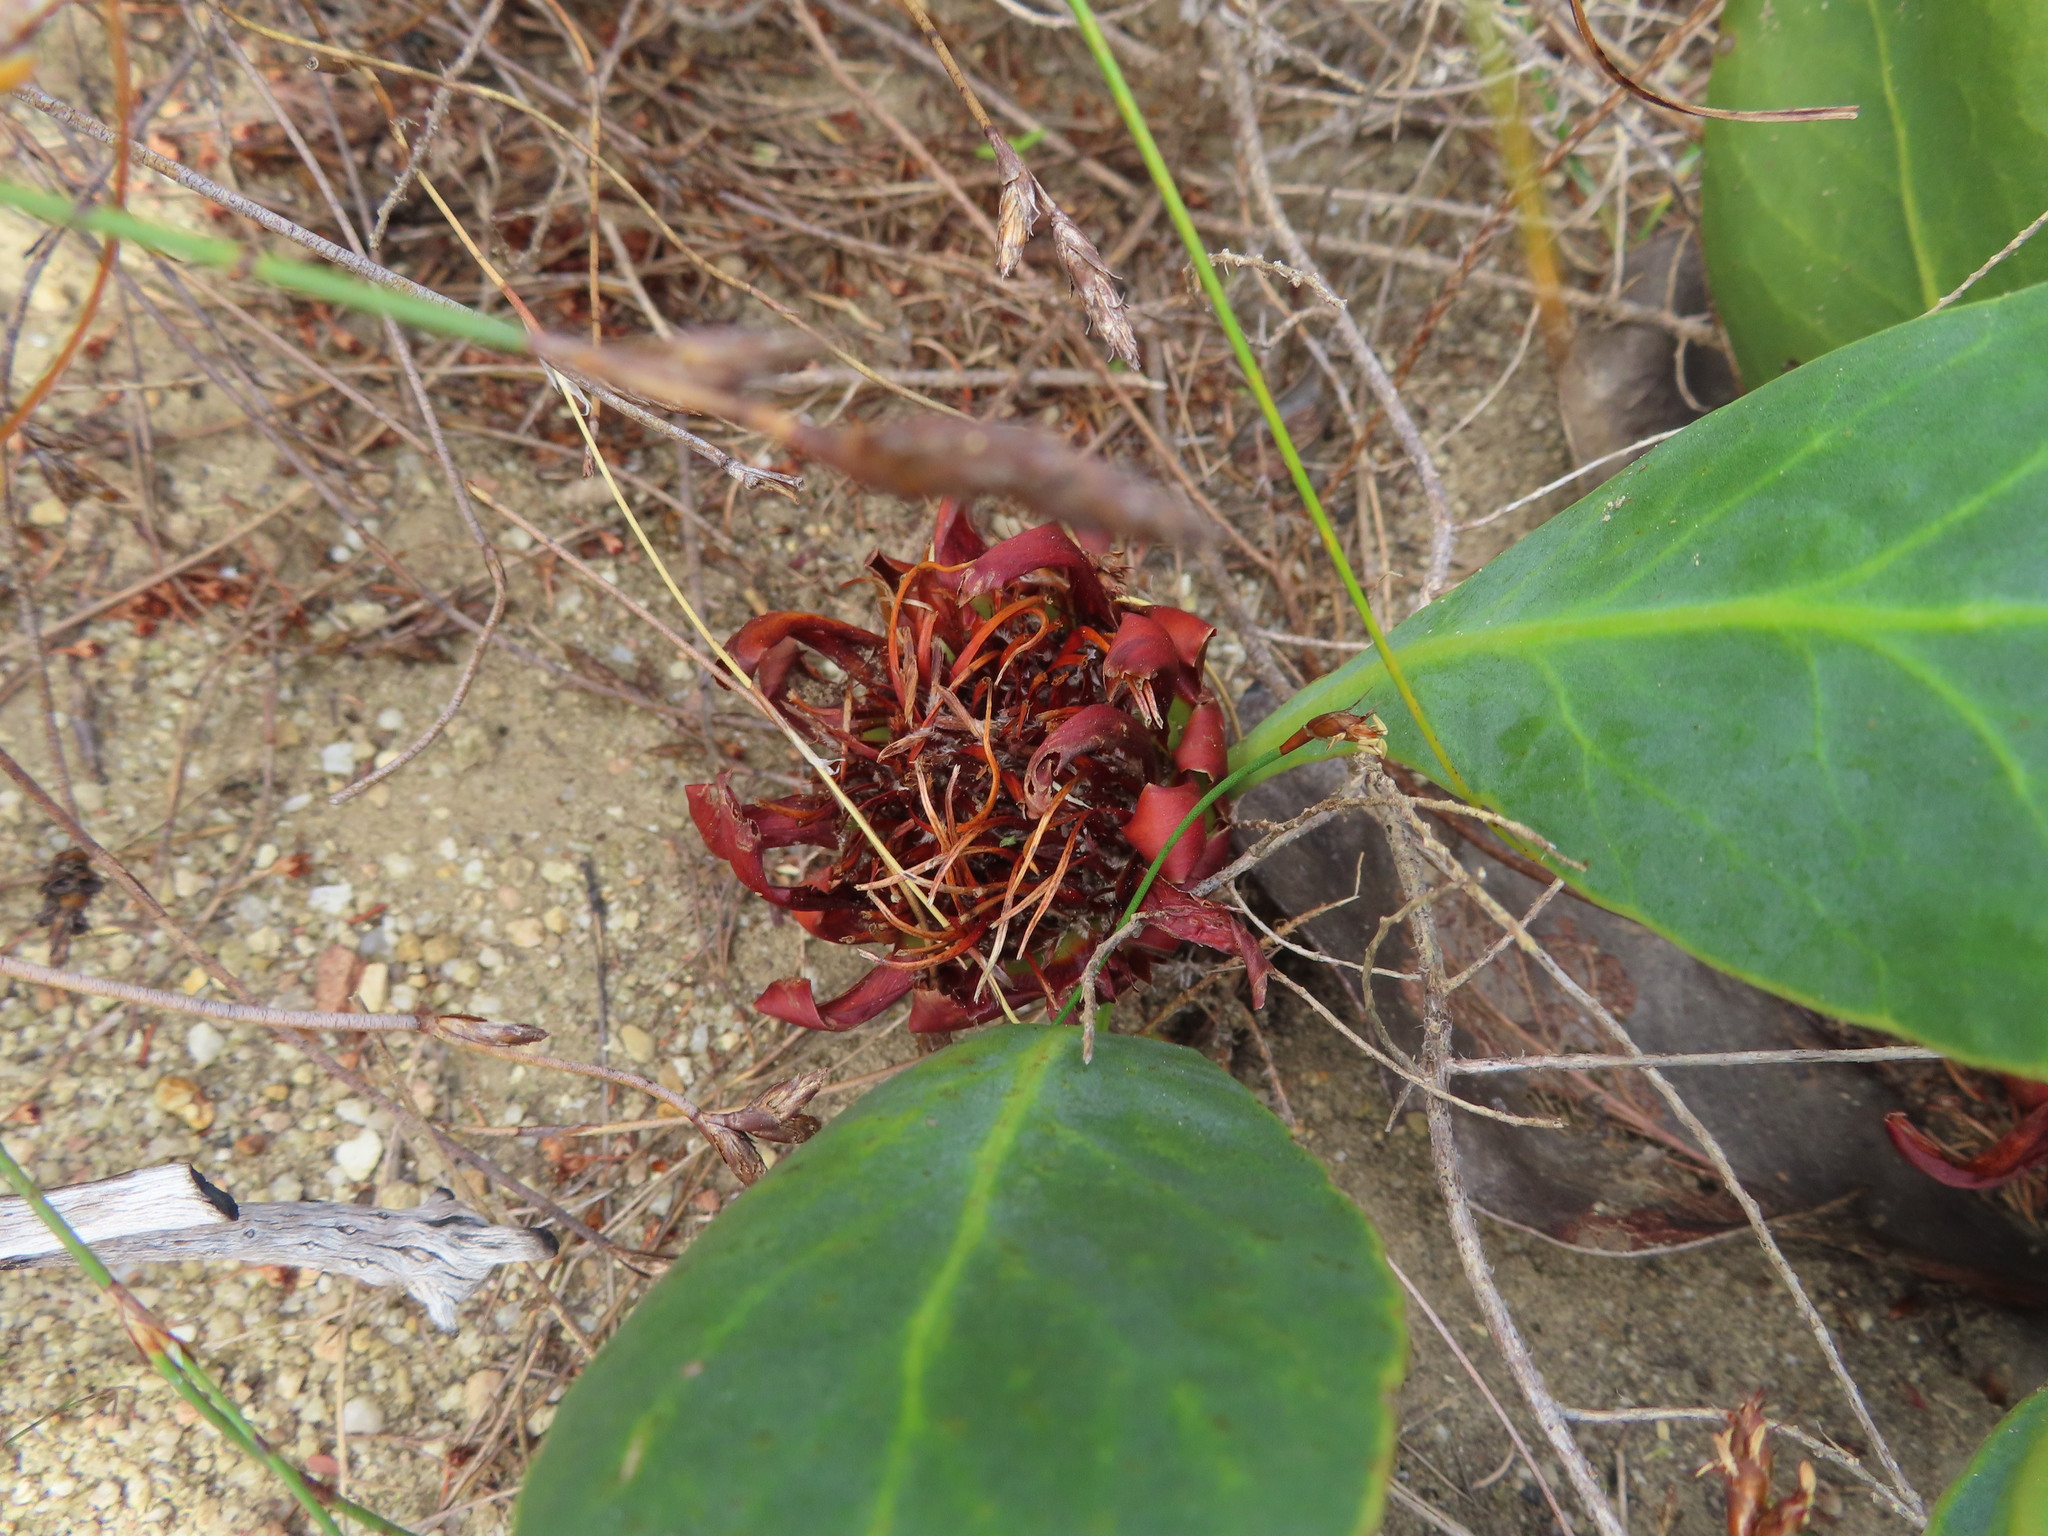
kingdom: Plantae
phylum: Tracheophyta
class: Magnoliopsida
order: Proteales
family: Proteaceae
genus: Protea
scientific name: Protea acaulos
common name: Common ground sugarbush
